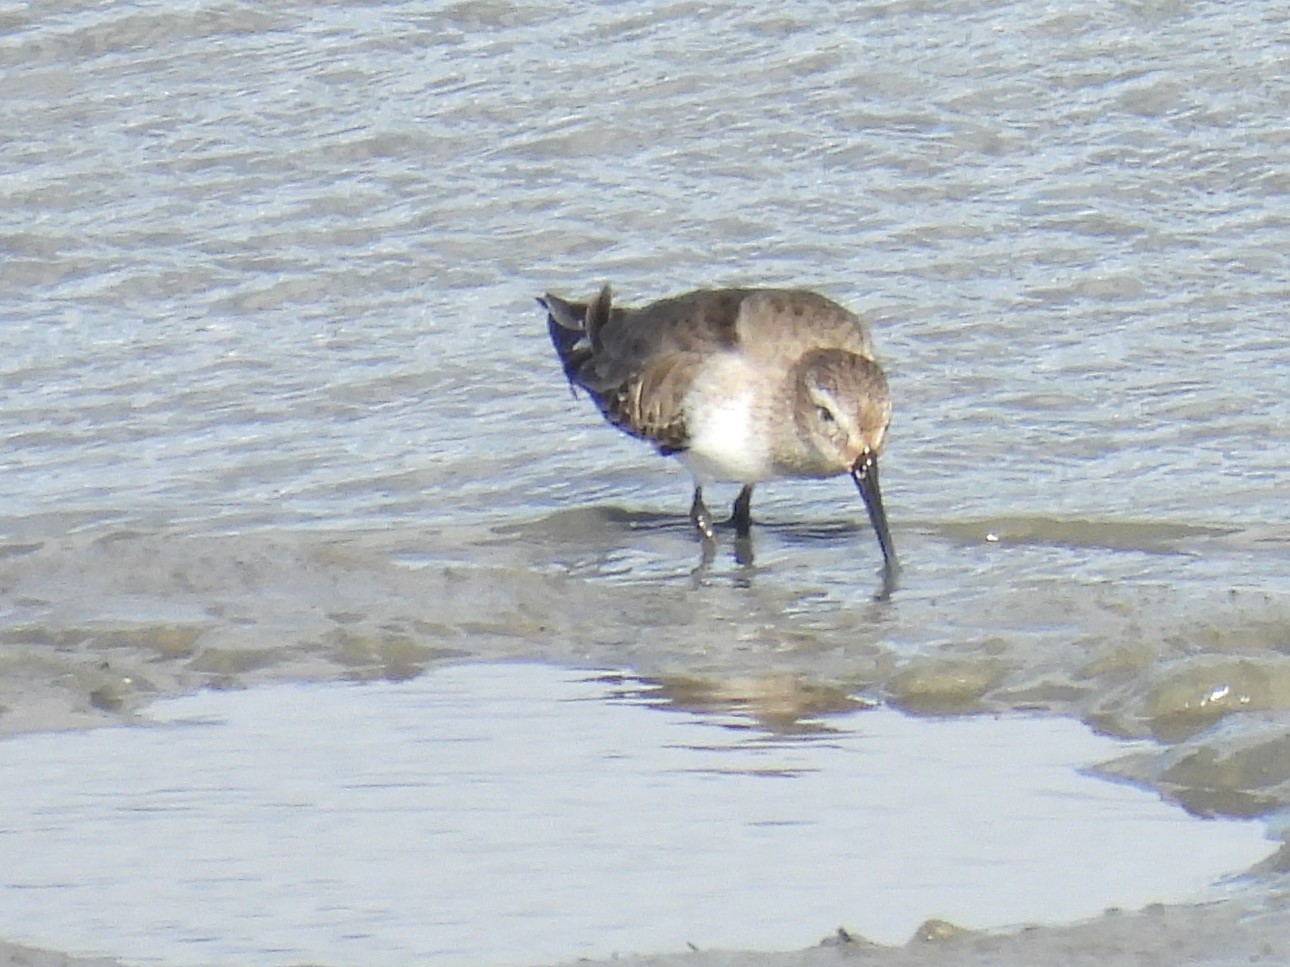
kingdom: Animalia
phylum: Chordata
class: Aves
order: Charadriiformes
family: Scolopacidae
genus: Calidris
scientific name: Calidris alpina
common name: Dunlin
